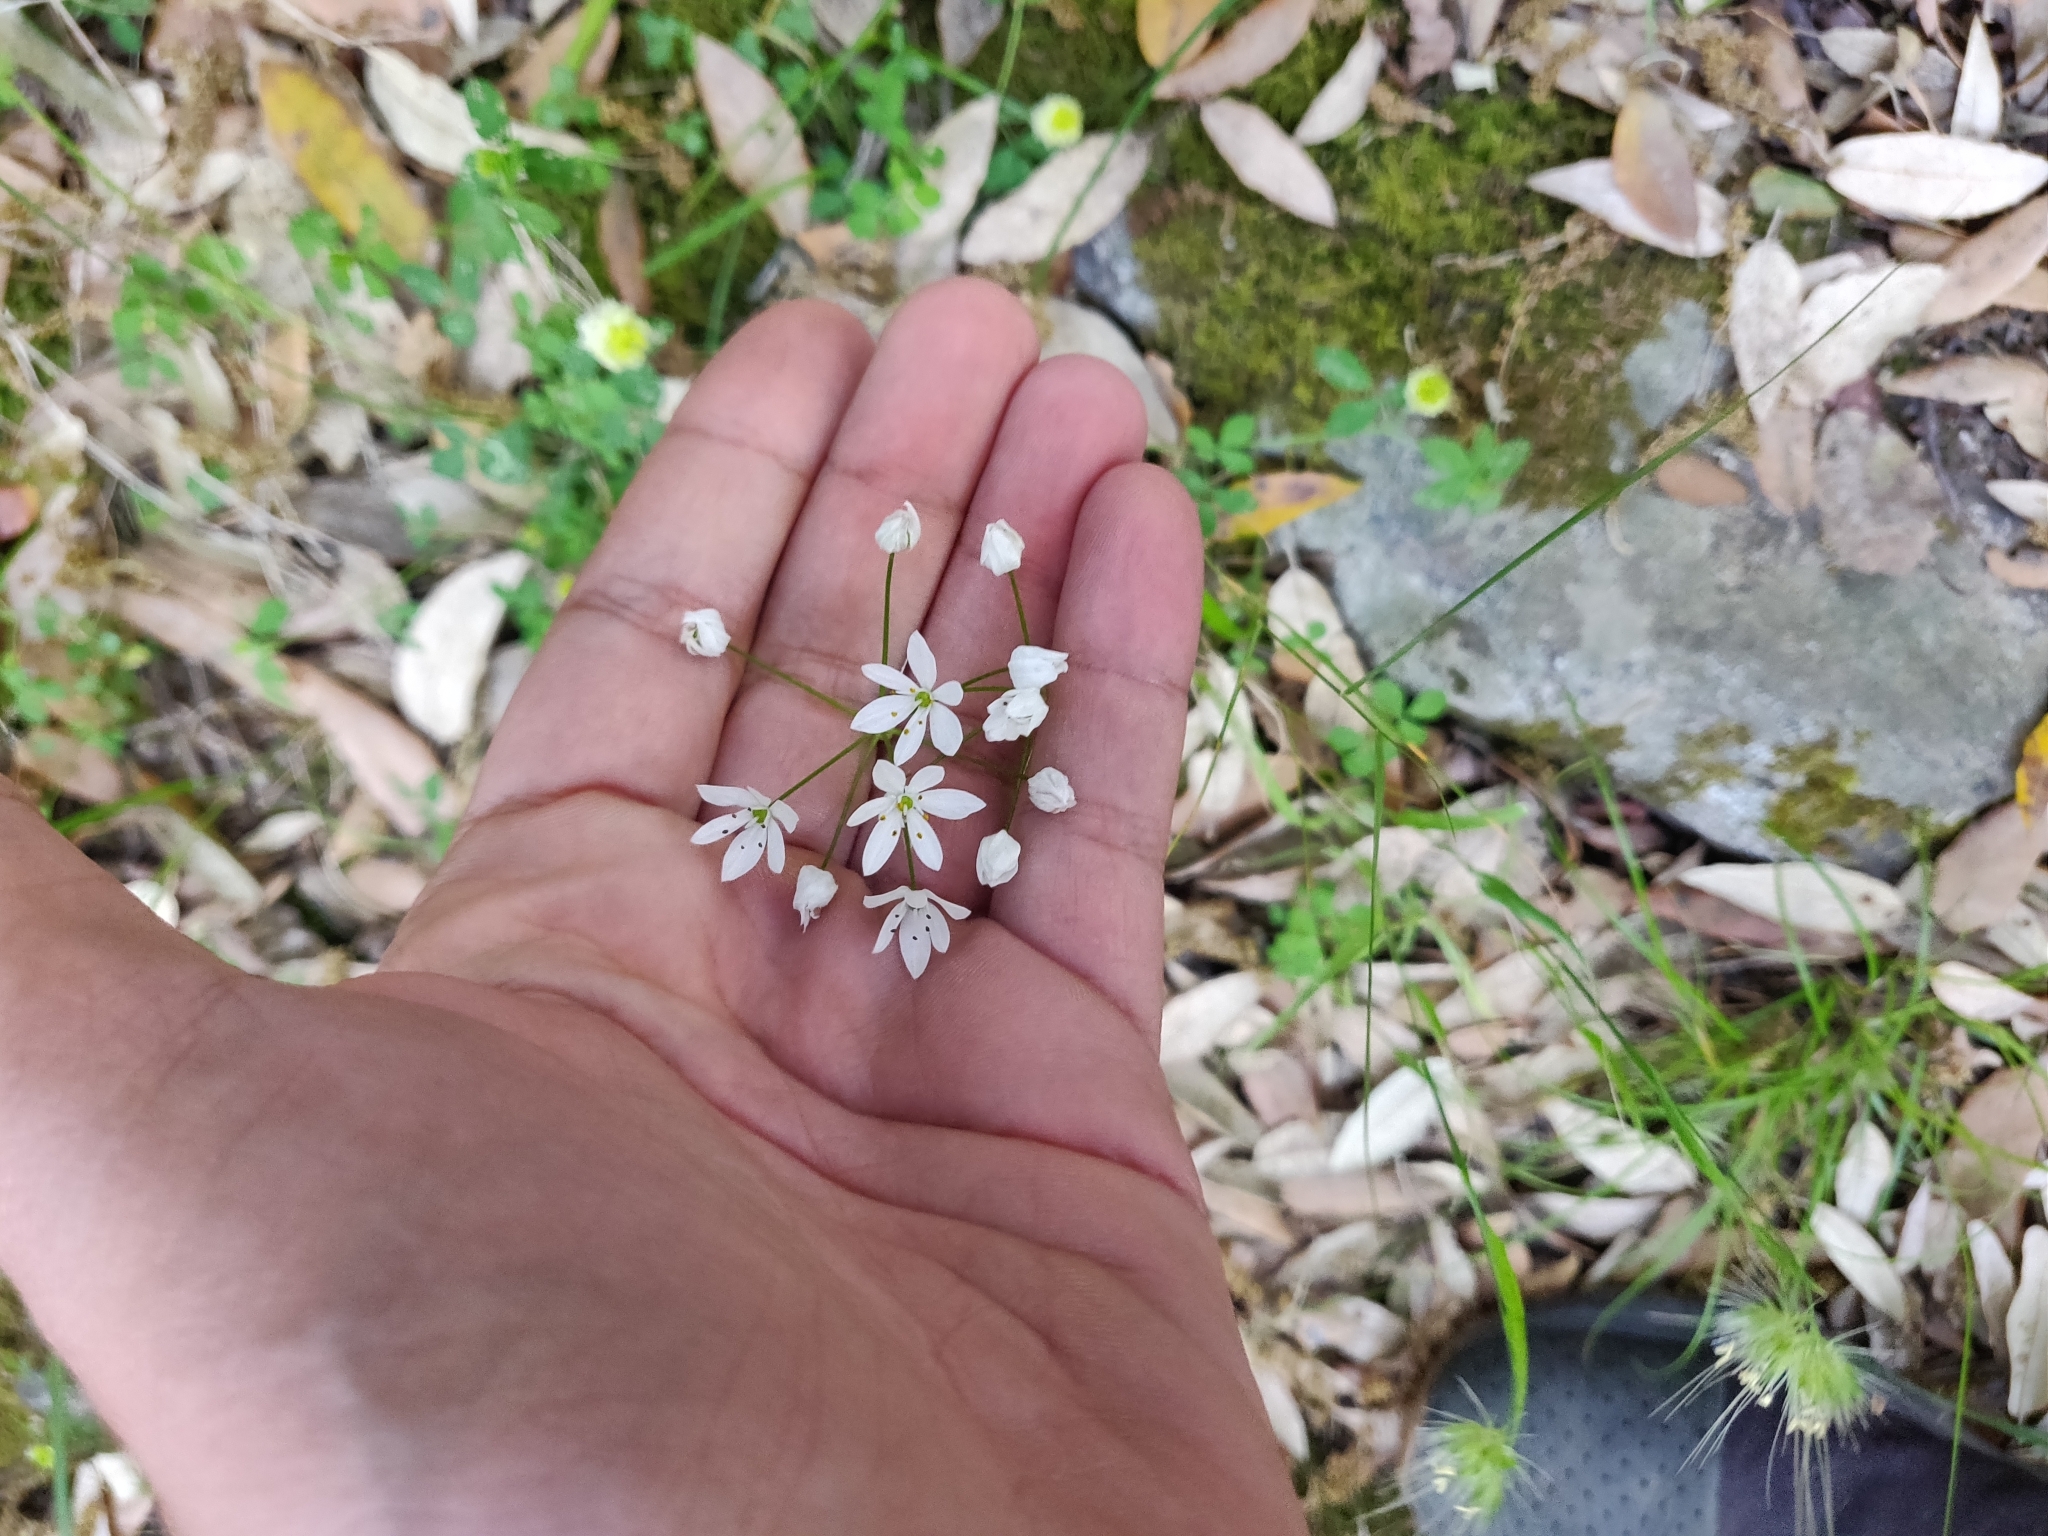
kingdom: Plantae
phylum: Tracheophyta
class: Liliopsida
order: Asparagales
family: Amaryllidaceae
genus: Allium
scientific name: Allium subhirsutum
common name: Hairy garlic
